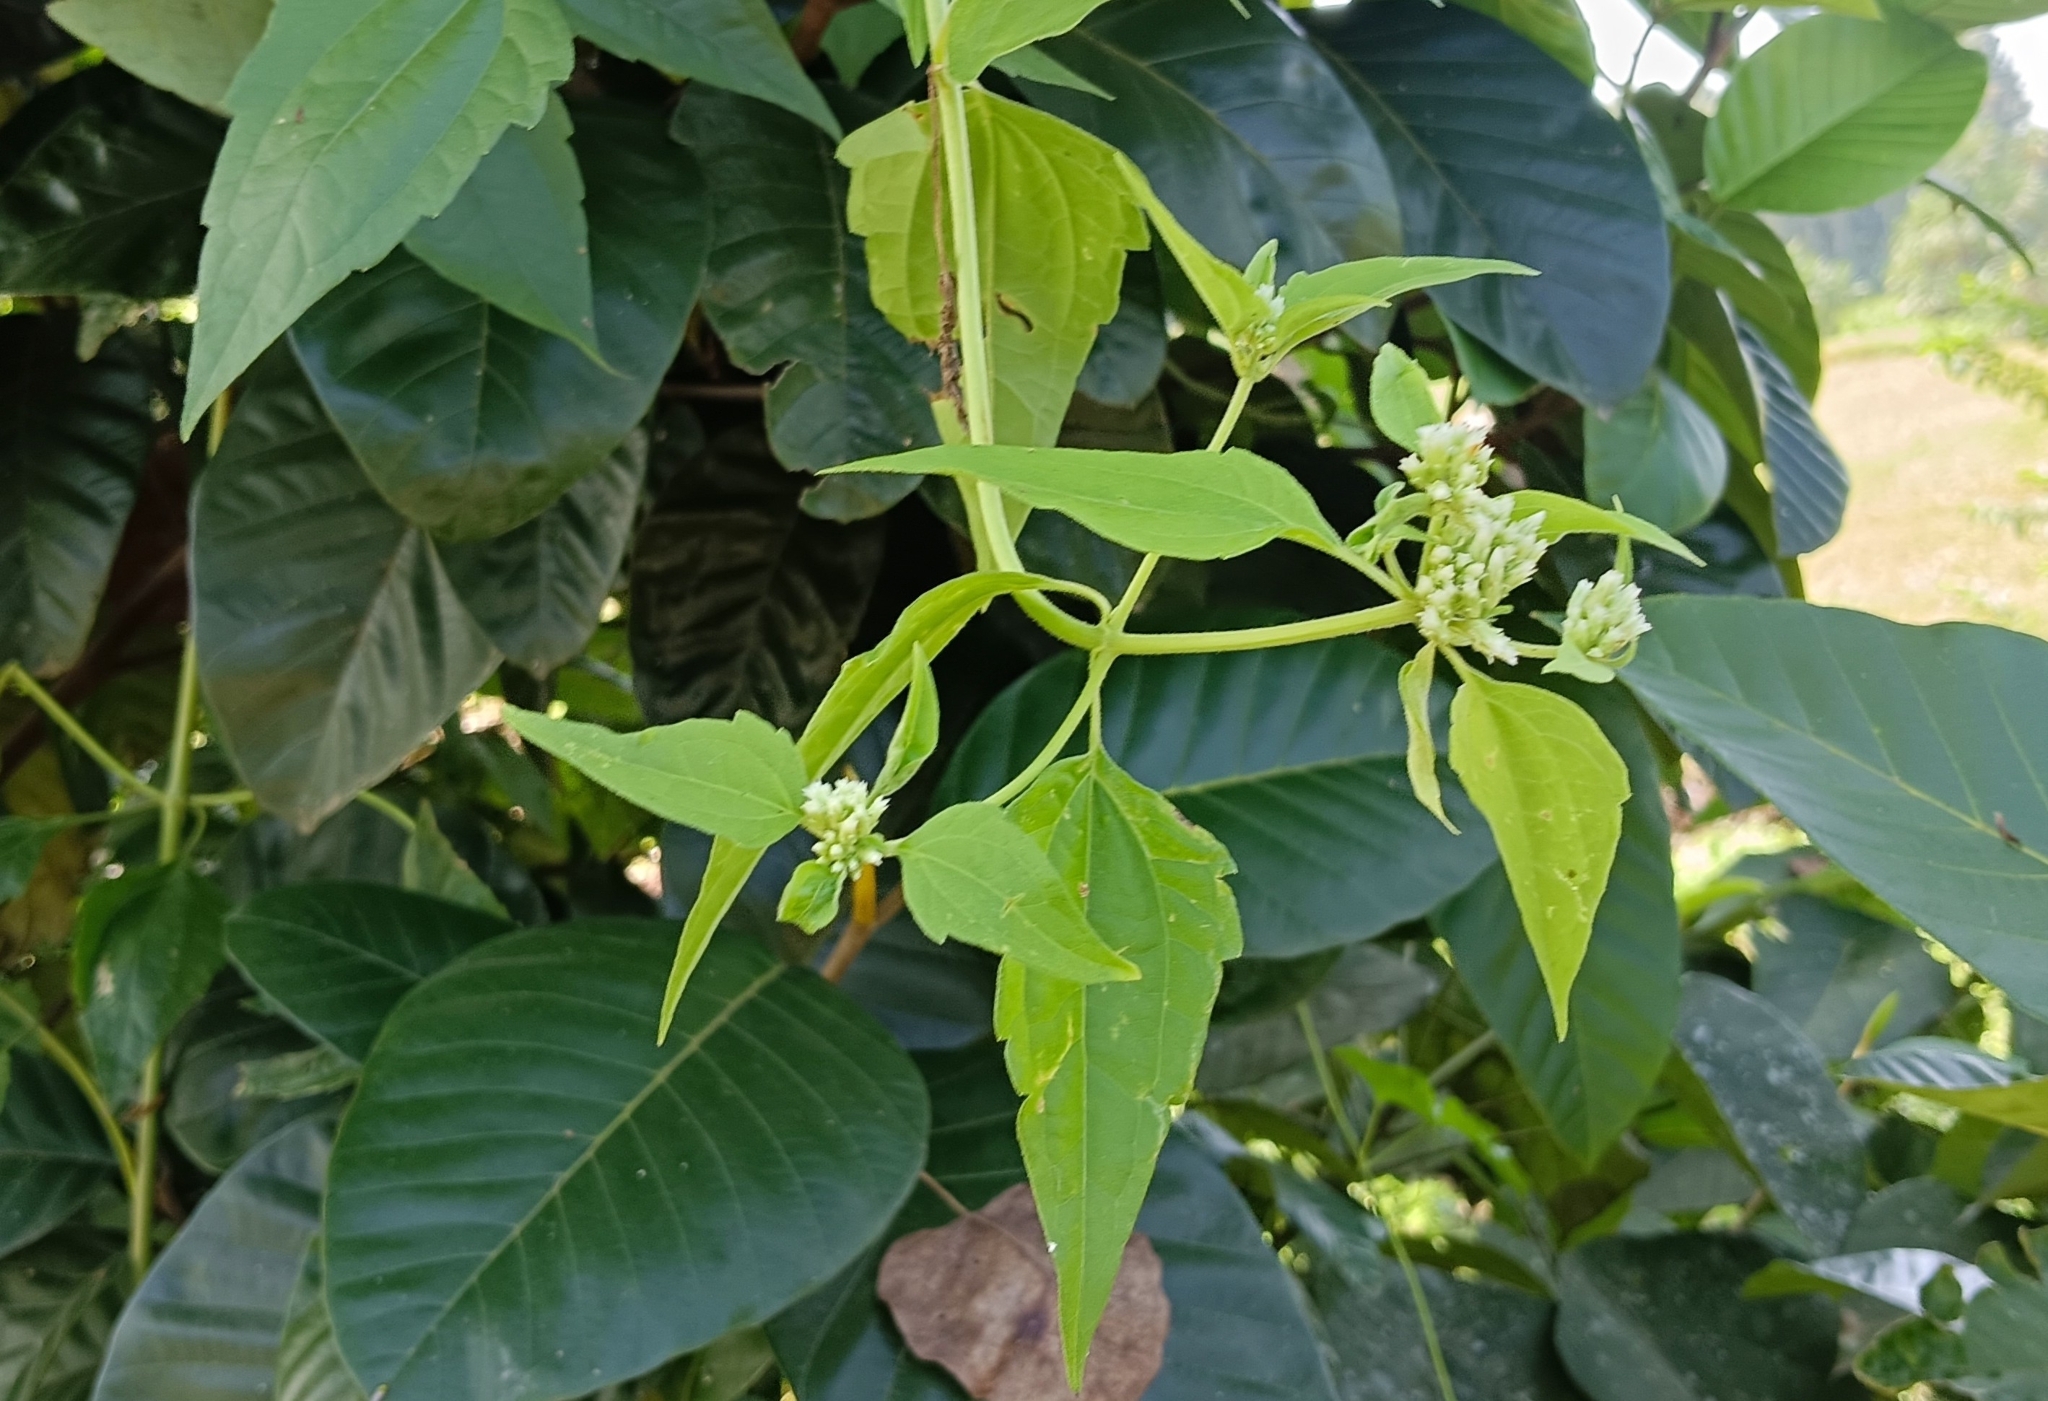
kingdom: Plantae
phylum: Tracheophyta
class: Magnoliopsida
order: Asterales
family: Asteraceae
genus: Chromolaena
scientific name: Chromolaena odorata
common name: Siamweed
